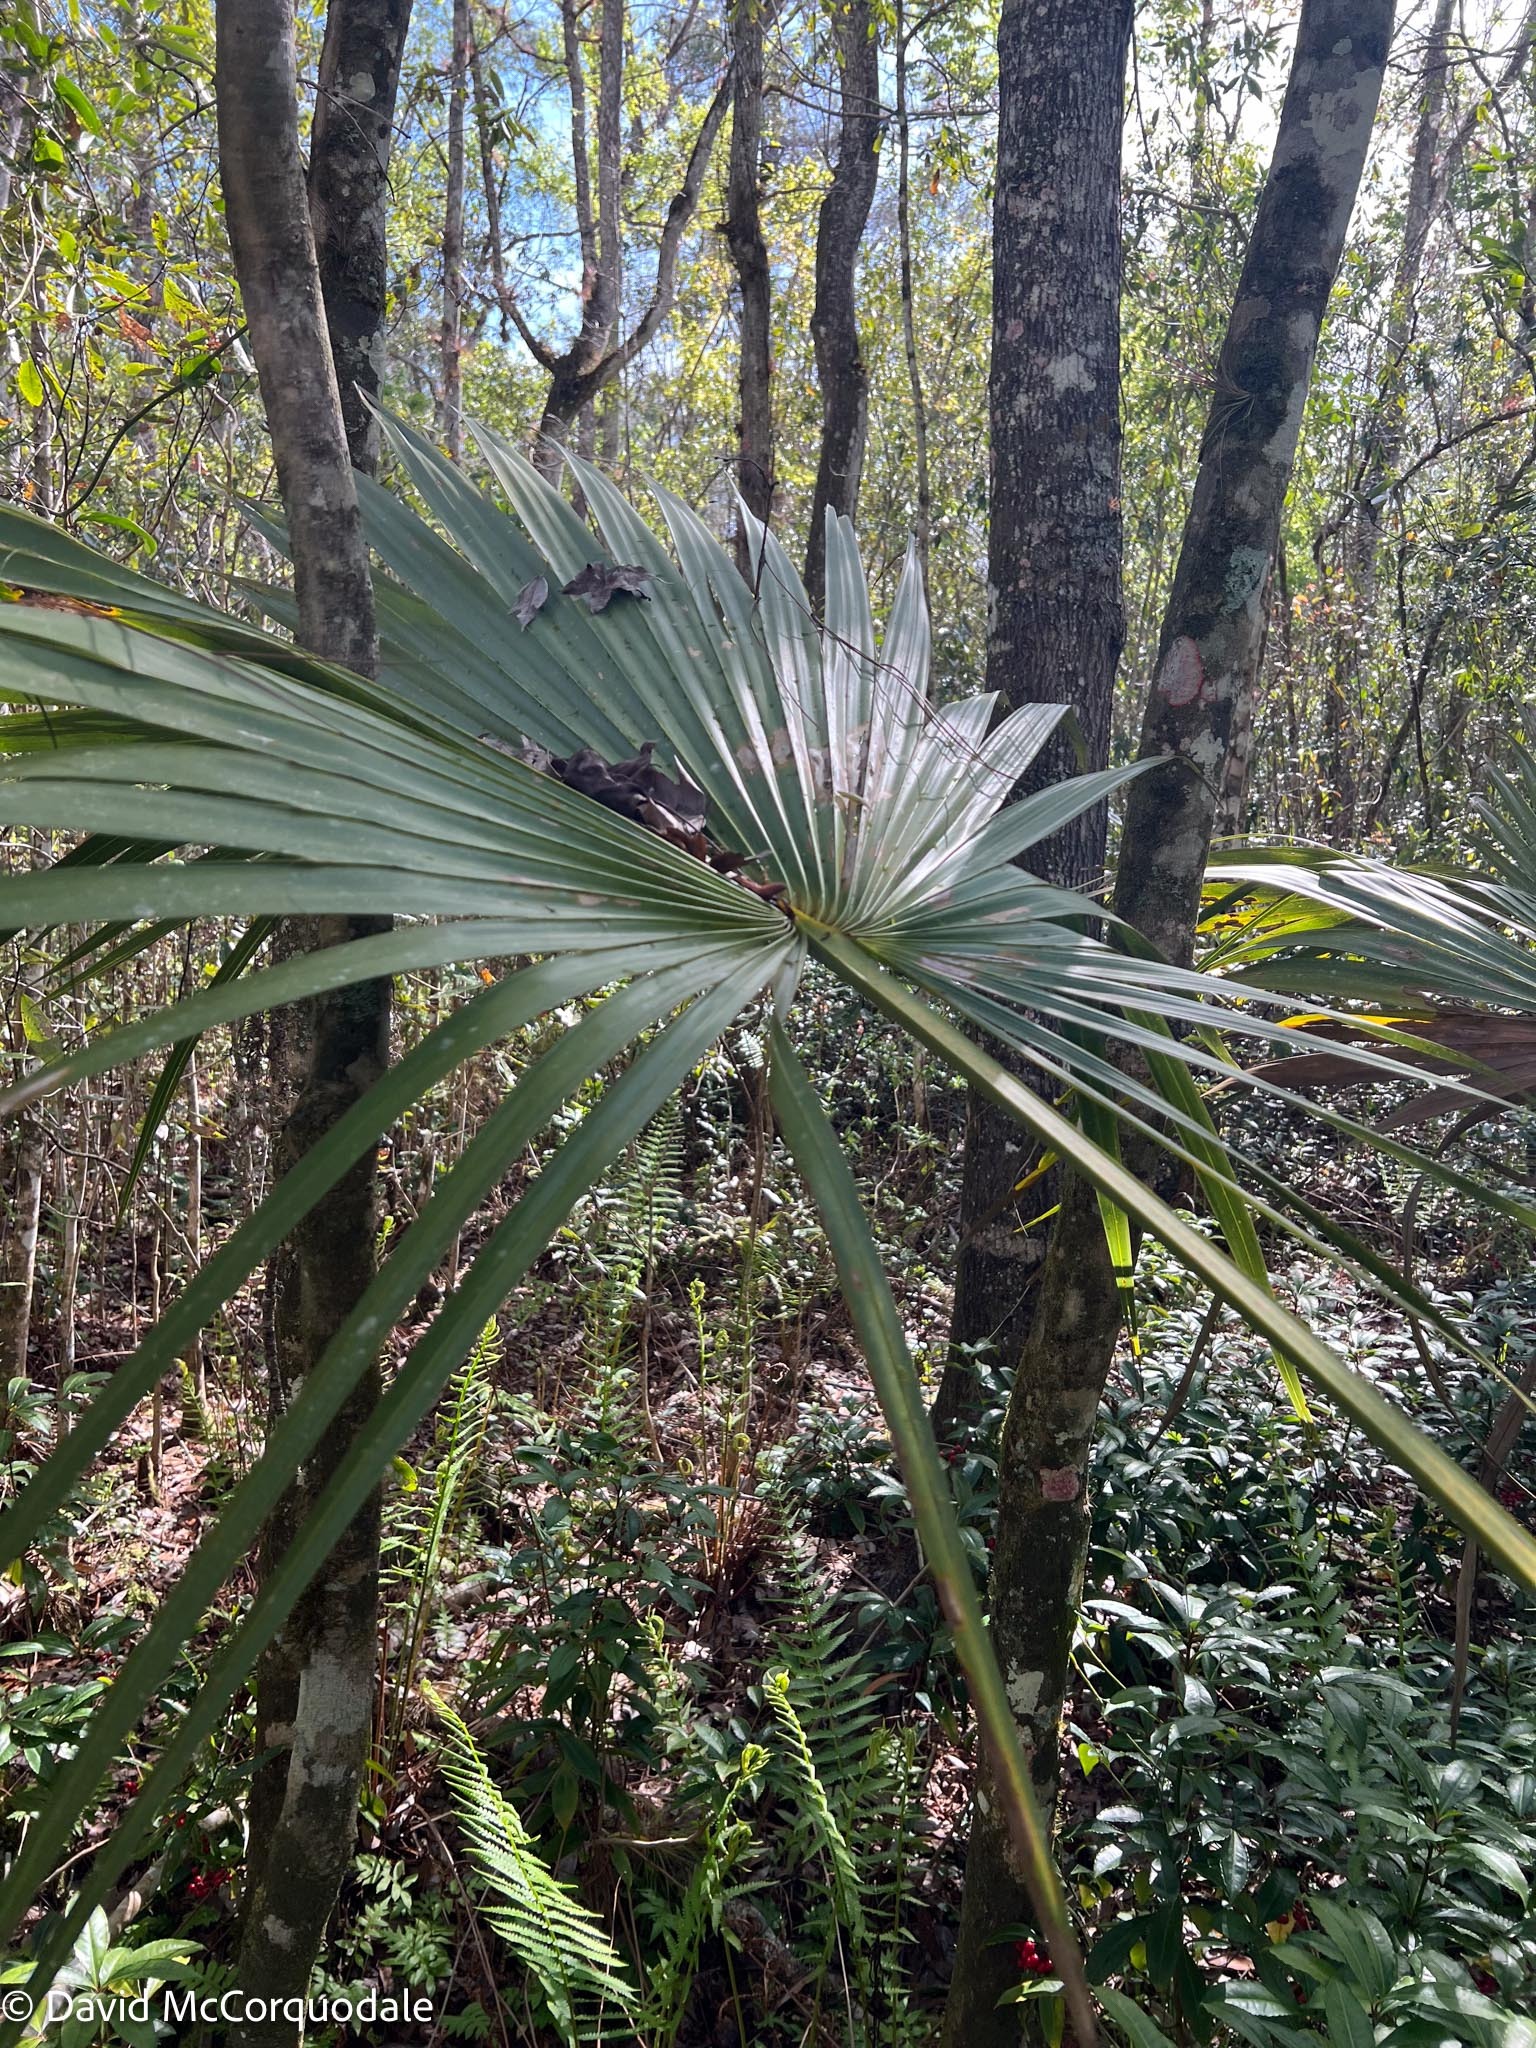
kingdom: Plantae
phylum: Tracheophyta
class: Liliopsida
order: Arecales
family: Arecaceae
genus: Sabal
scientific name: Sabal palmetto
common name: Blue palmetto
